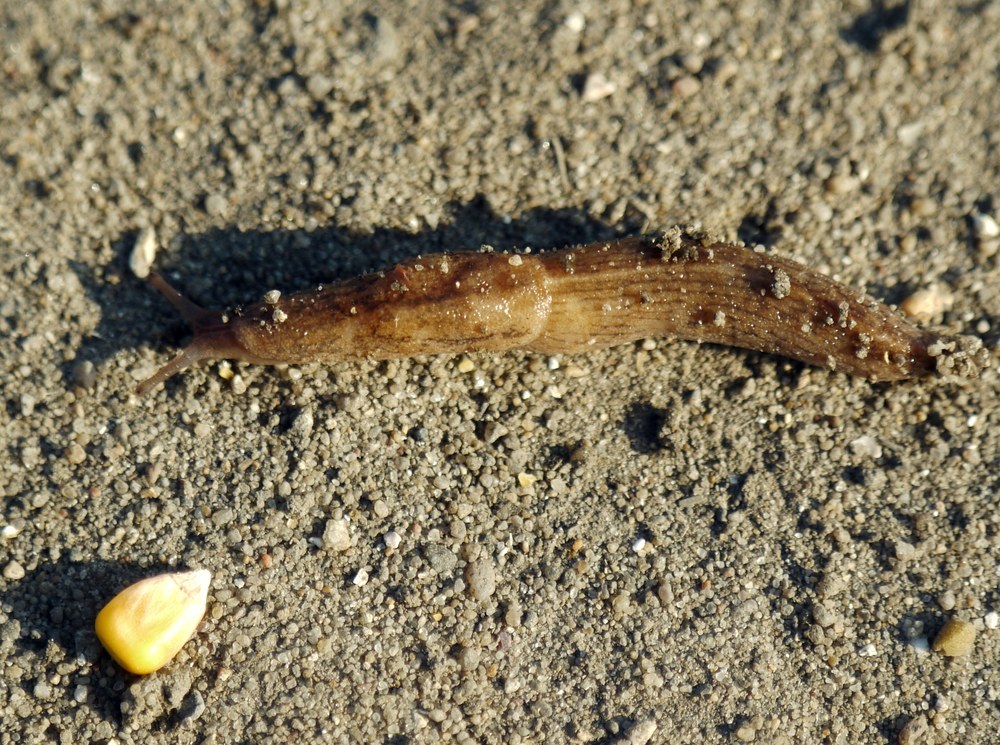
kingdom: Animalia
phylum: Mollusca
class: Gastropoda
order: Stylommatophora
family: Milacidae
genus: Tandonia
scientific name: Tandonia kusceri
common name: Keeled slug
